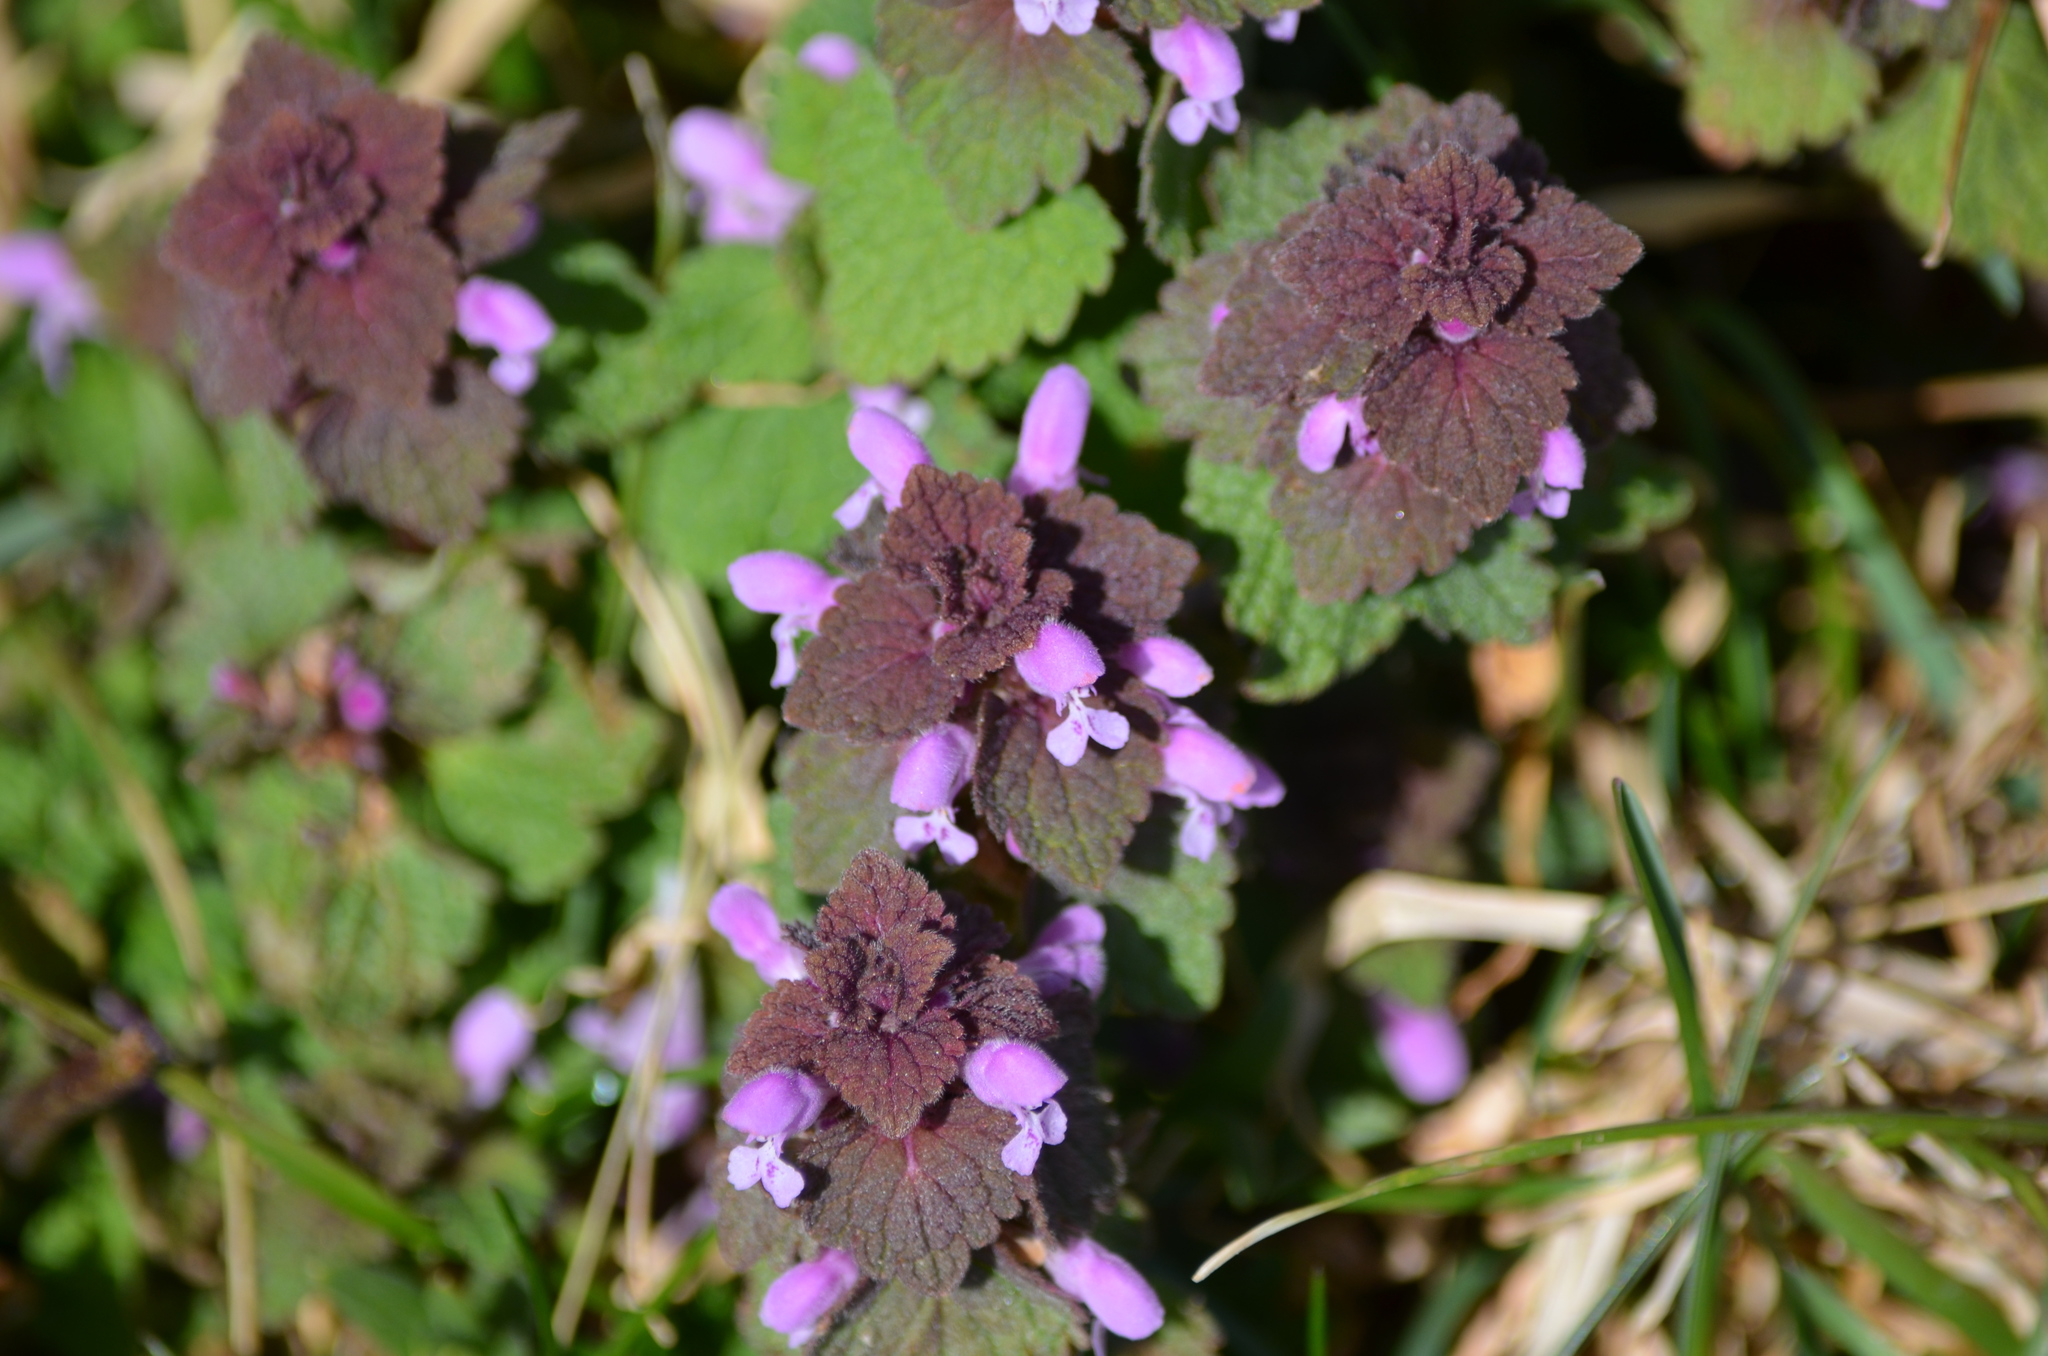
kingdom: Plantae
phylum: Tracheophyta
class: Magnoliopsida
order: Lamiales
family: Lamiaceae
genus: Lamium
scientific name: Lamium purpureum
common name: Red dead-nettle
